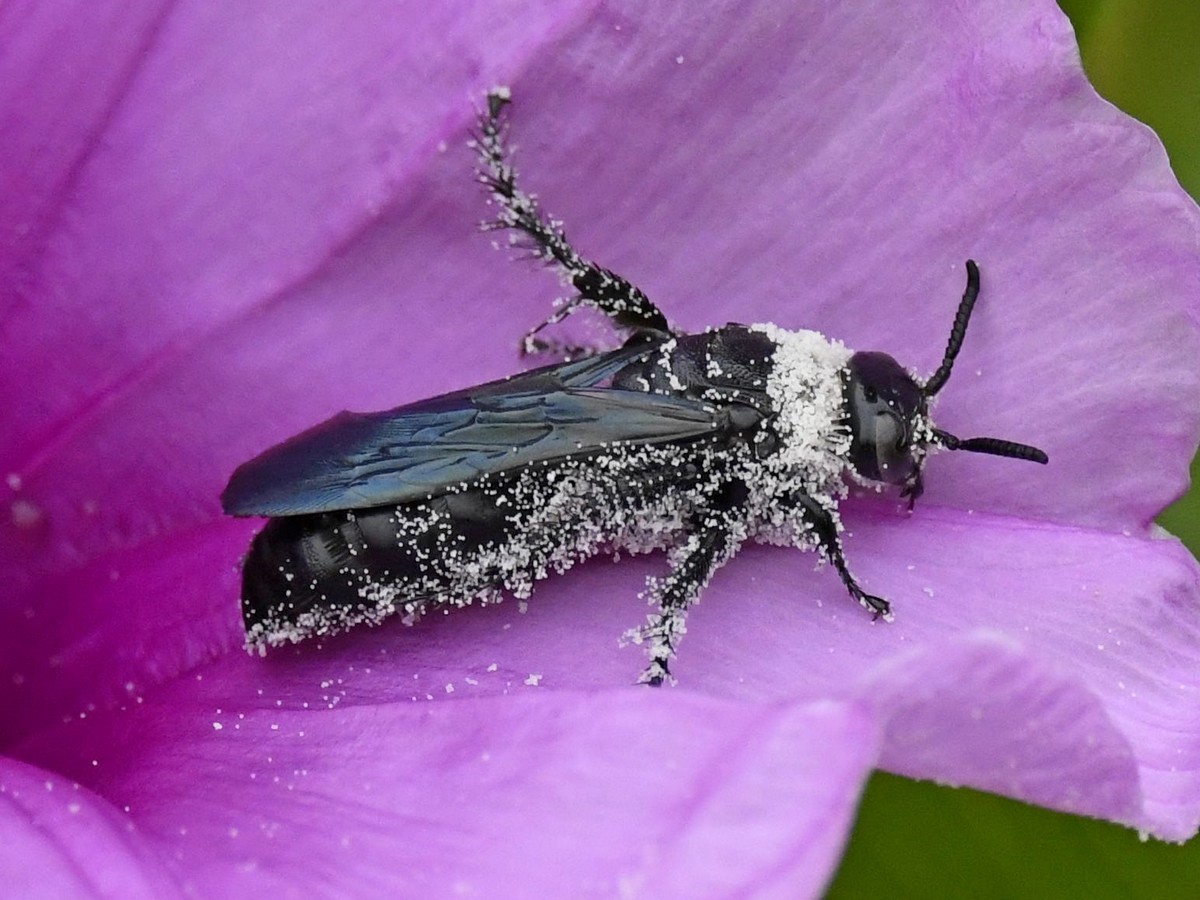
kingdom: Animalia
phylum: Arthropoda
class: Insecta
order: Hymenoptera
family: Scoliidae
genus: Campsomeriella
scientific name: Campsomeriella collaris
